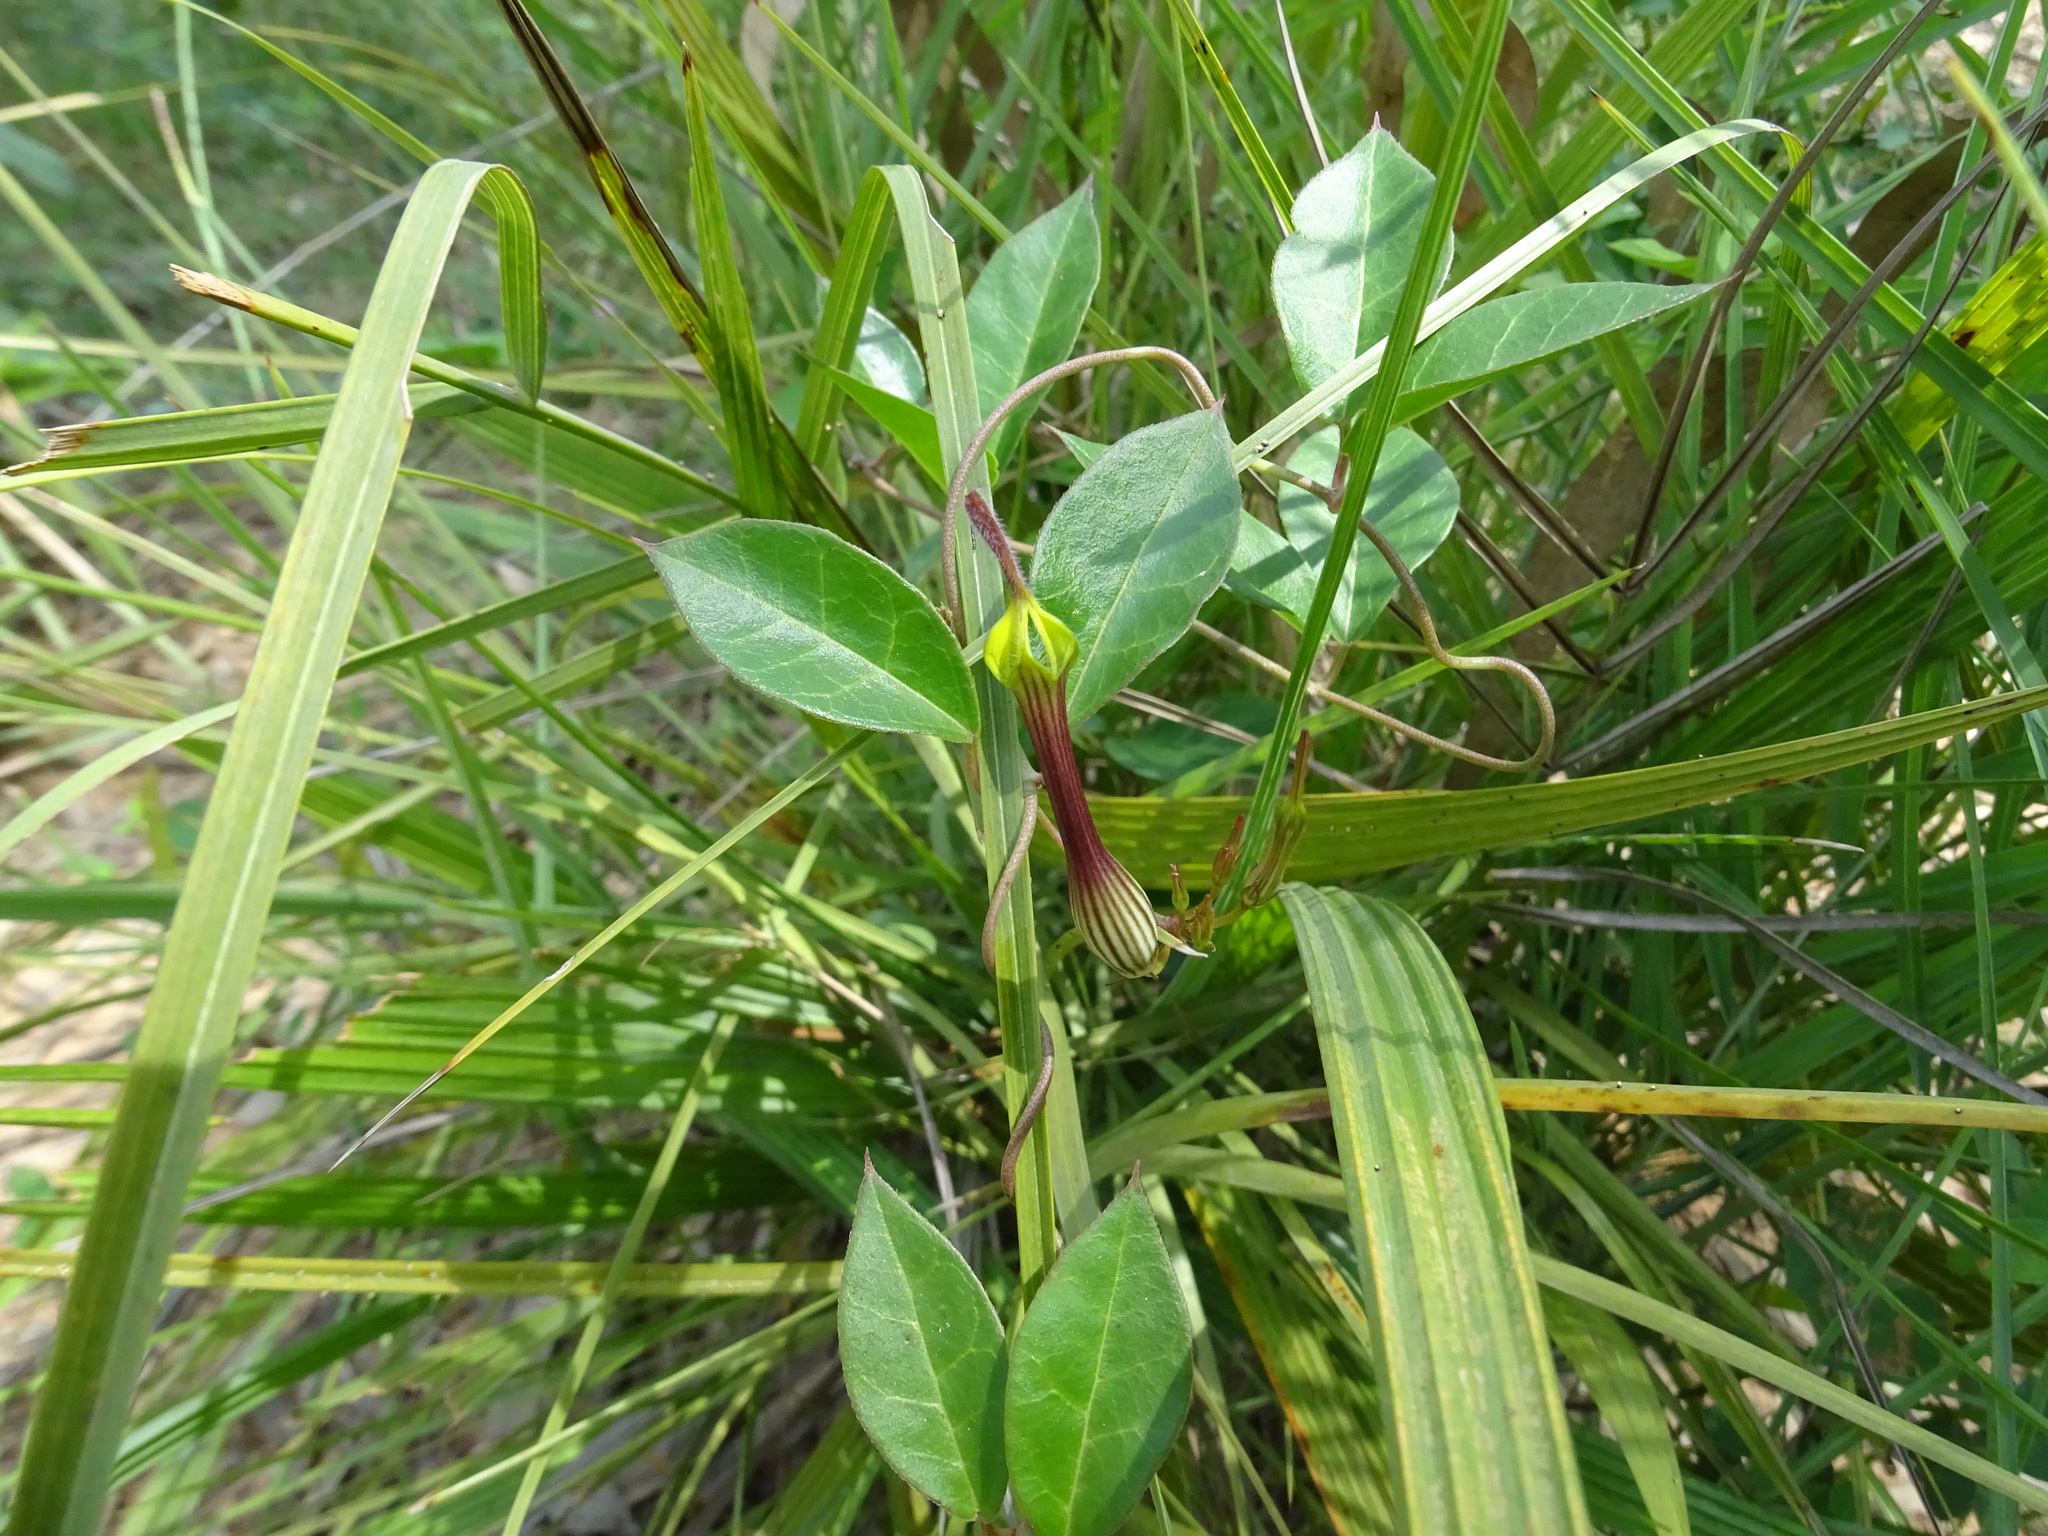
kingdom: Plantae
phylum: Tracheophyta
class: Magnoliopsida
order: Gentianales
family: Apocynaceae
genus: Ceropegia
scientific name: Ceropegia candelabrum
